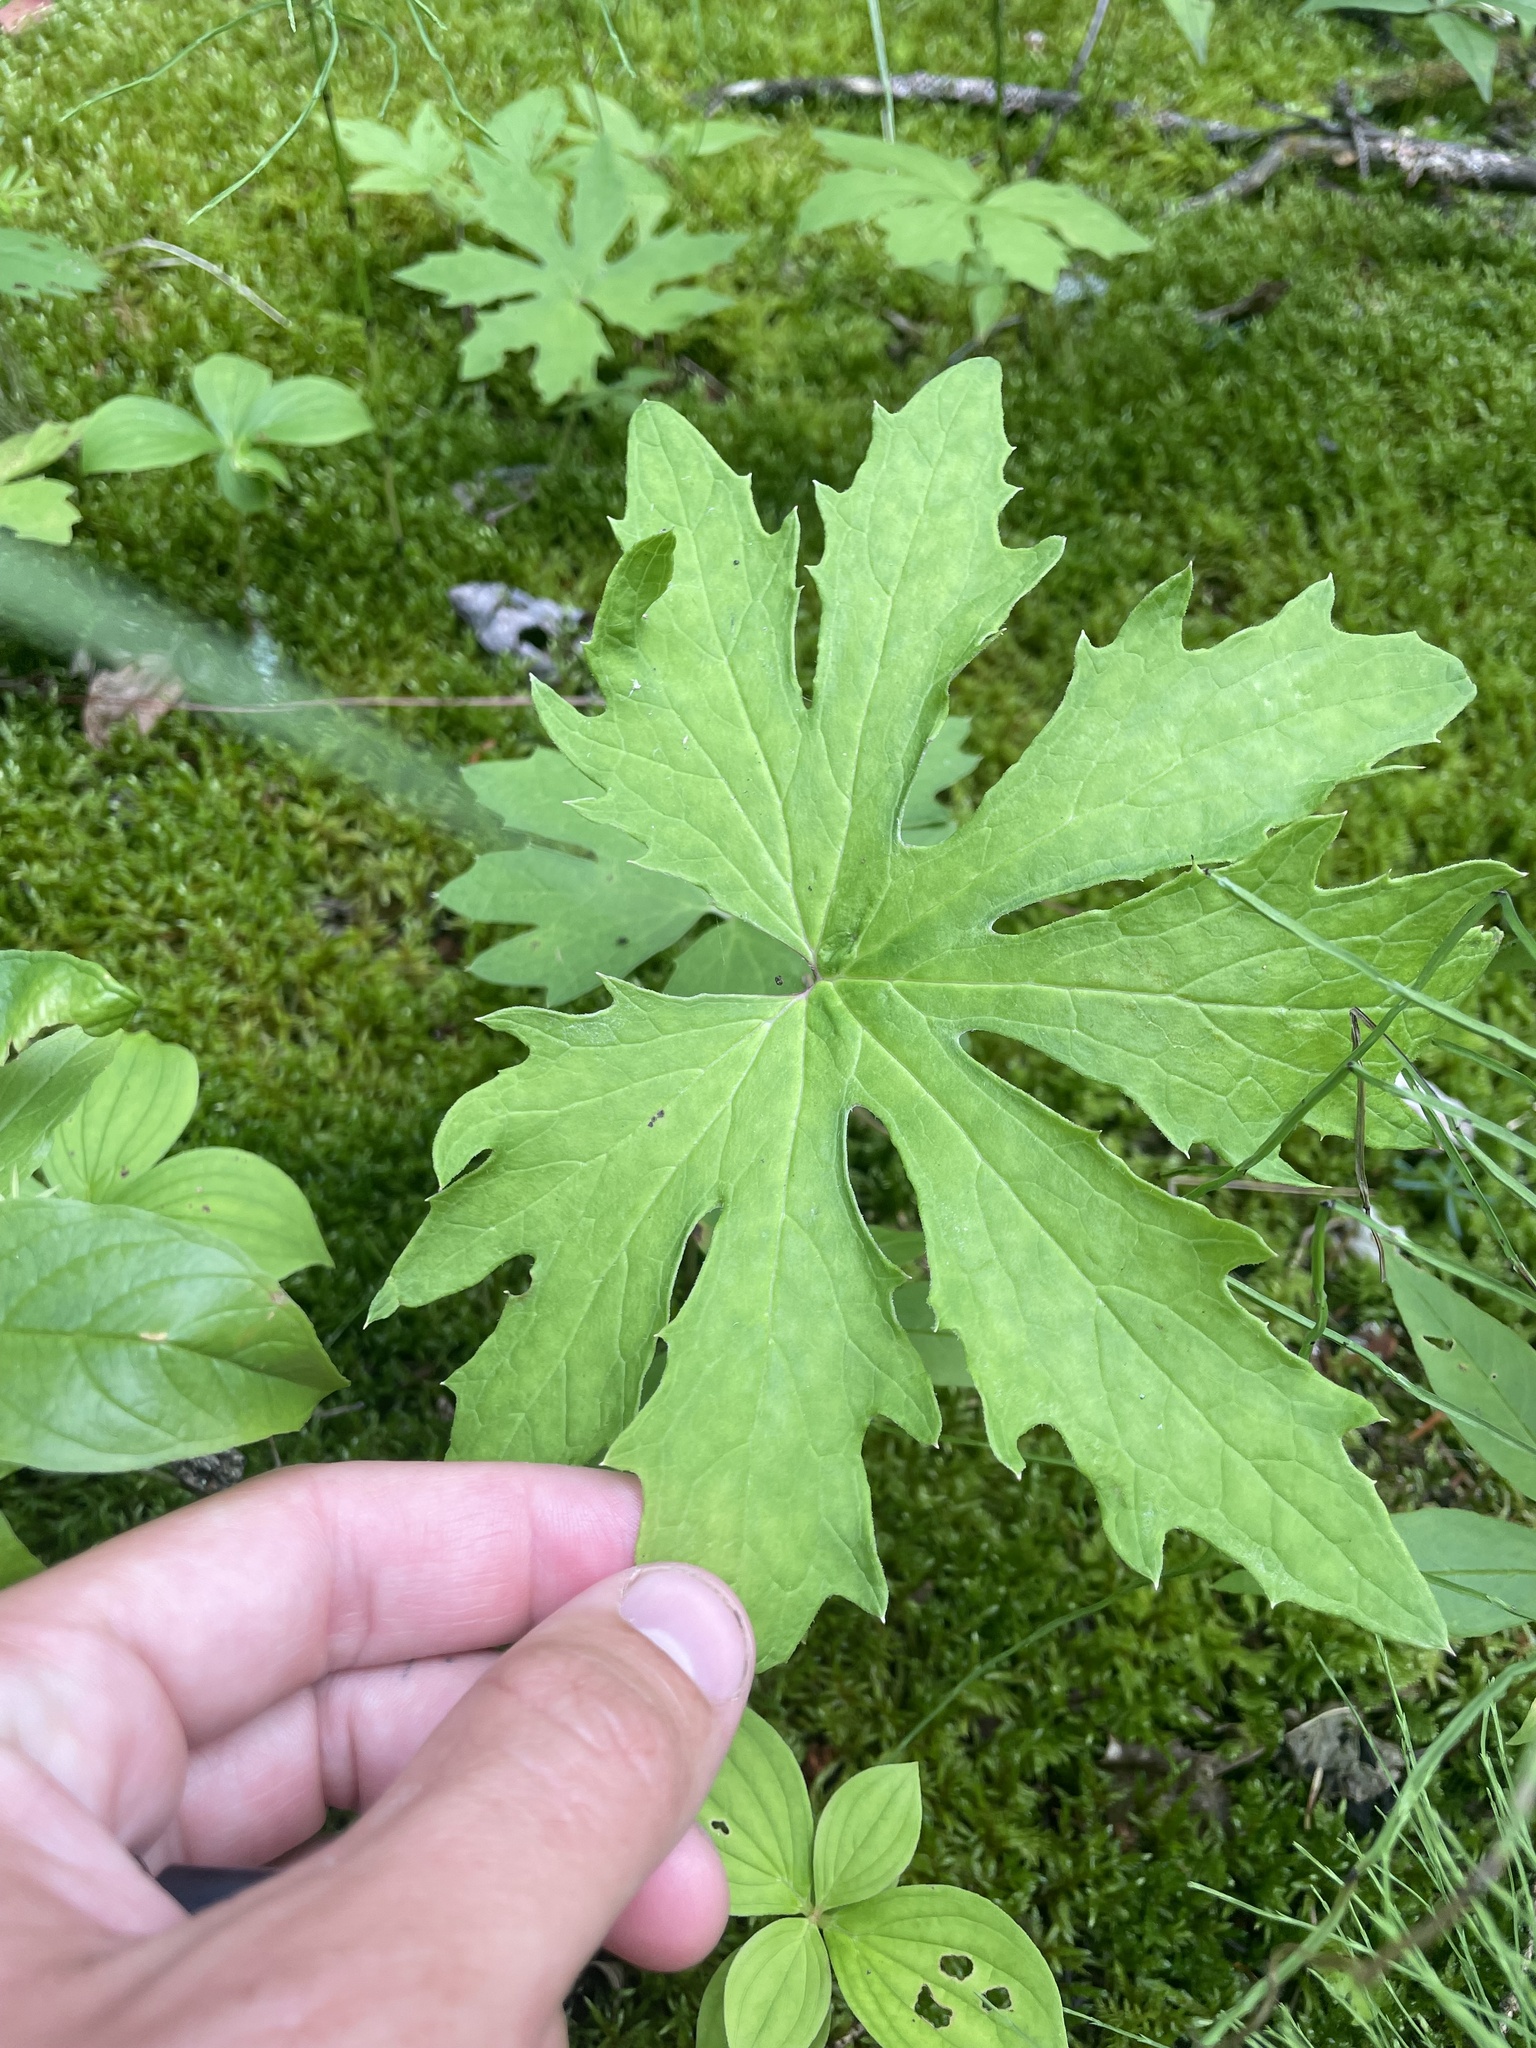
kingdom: Plantae
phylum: Tracheophyta
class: Magnoliopsida
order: Asterales
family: Asteraceae
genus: Petasites
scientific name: Petasites frigidus
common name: Arctic butterbur
